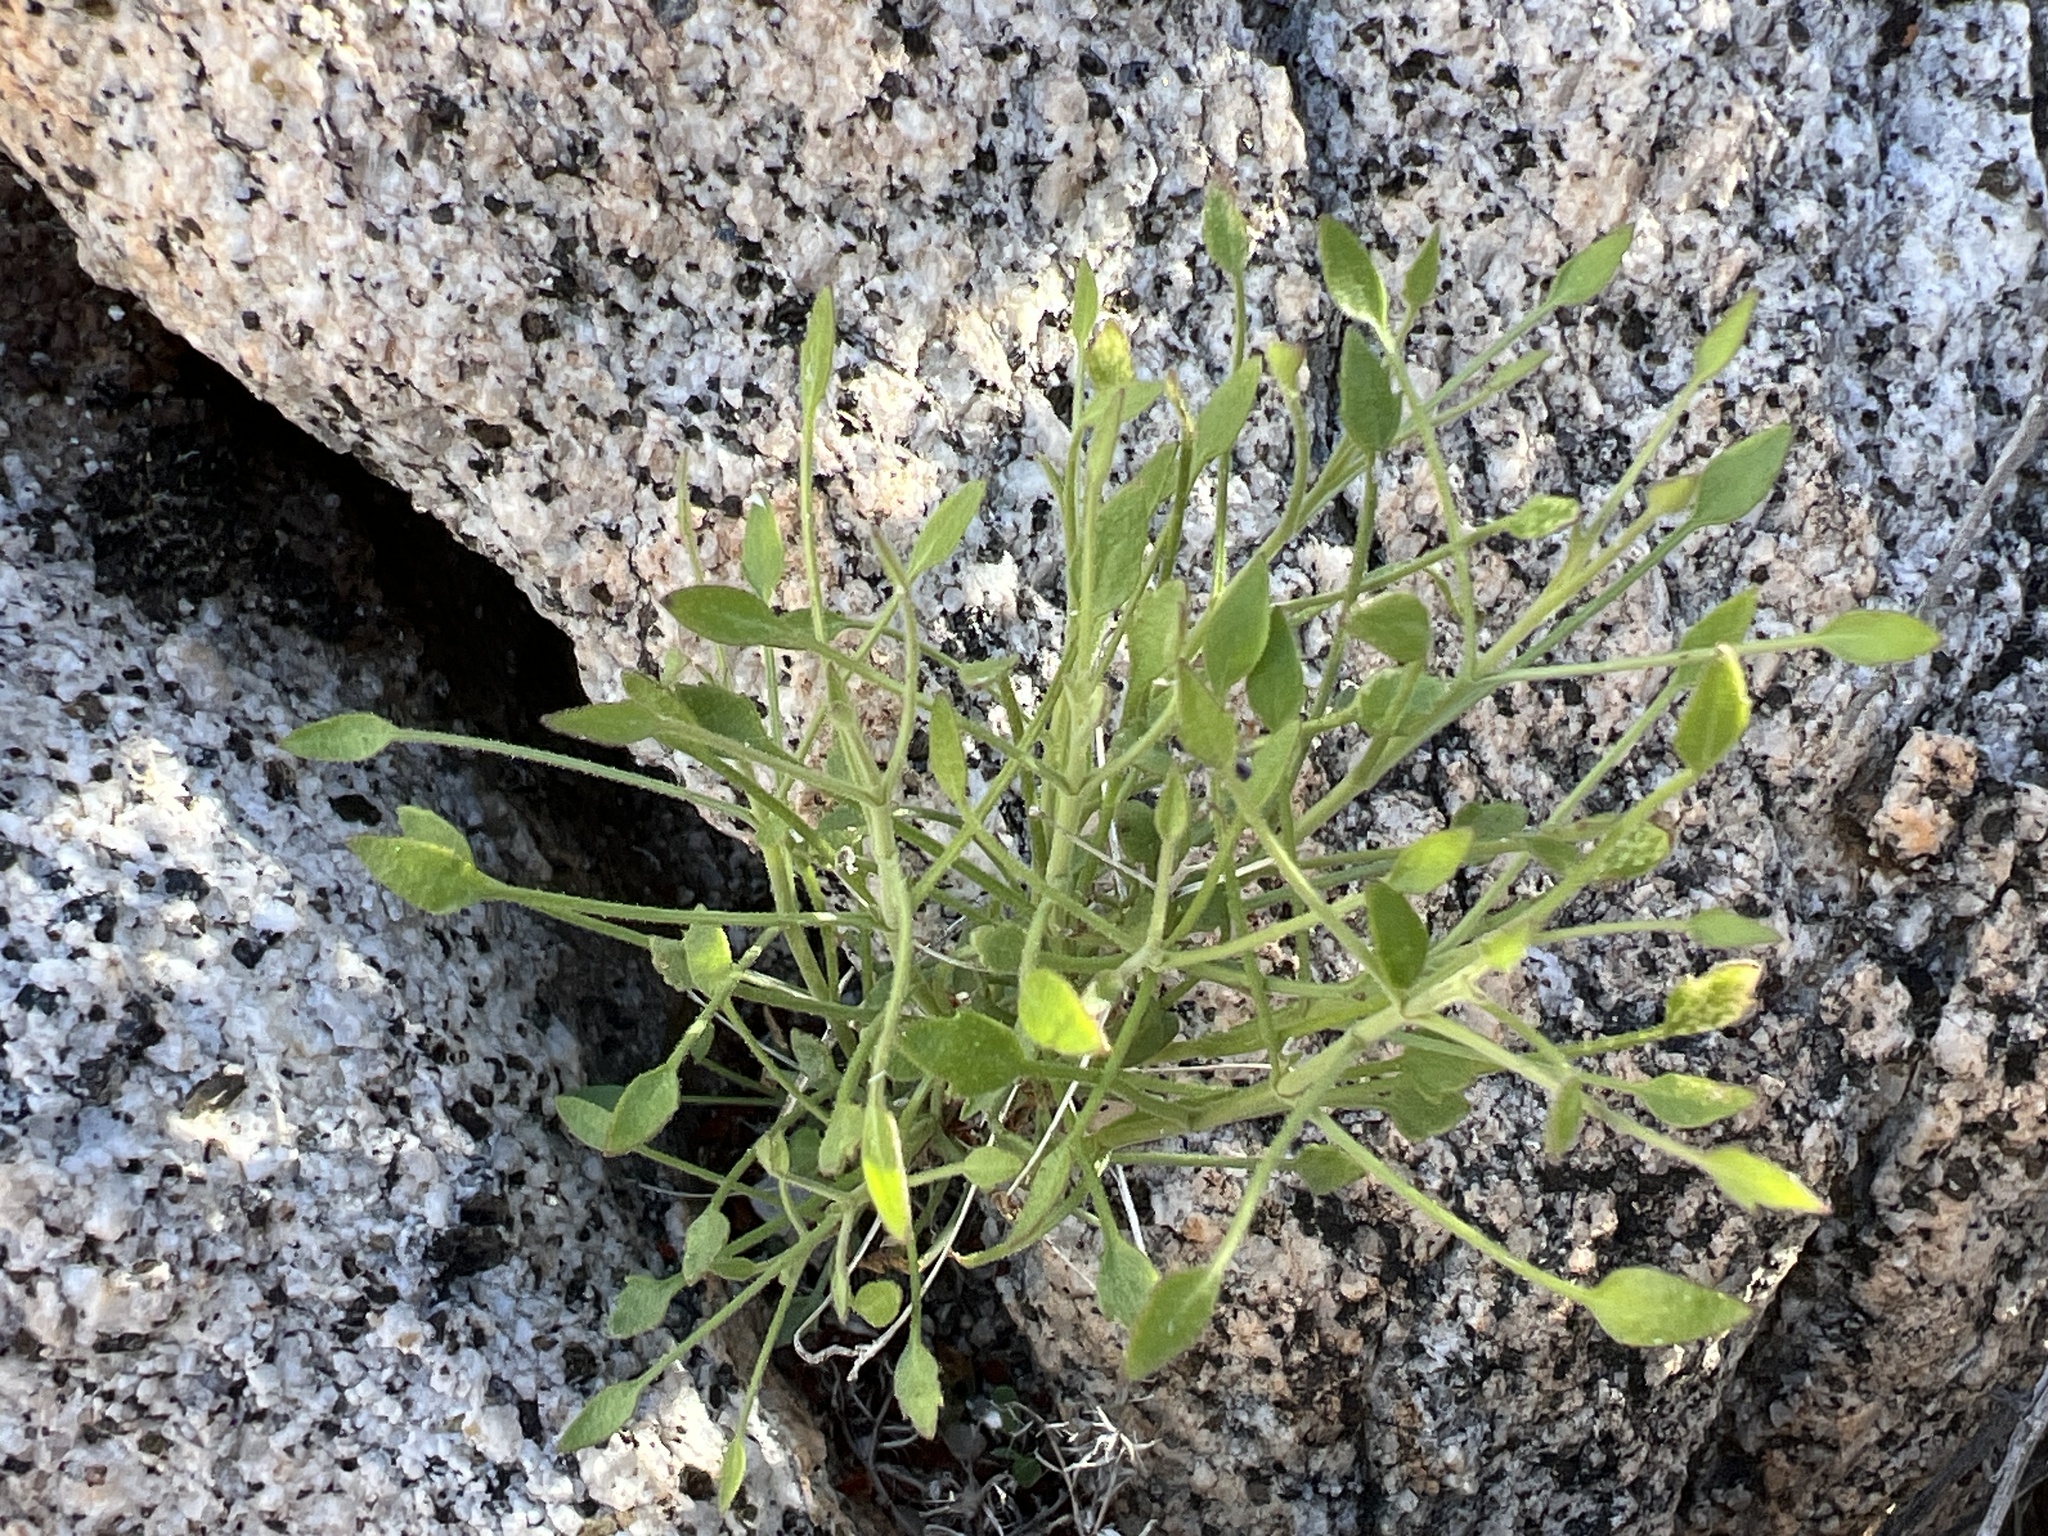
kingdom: Plantae
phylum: Tracheophyta
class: Magnoliopsida
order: Asterales
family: Asteraceae
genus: Pleurocoronis
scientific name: Pleurocoronis pluriseta
